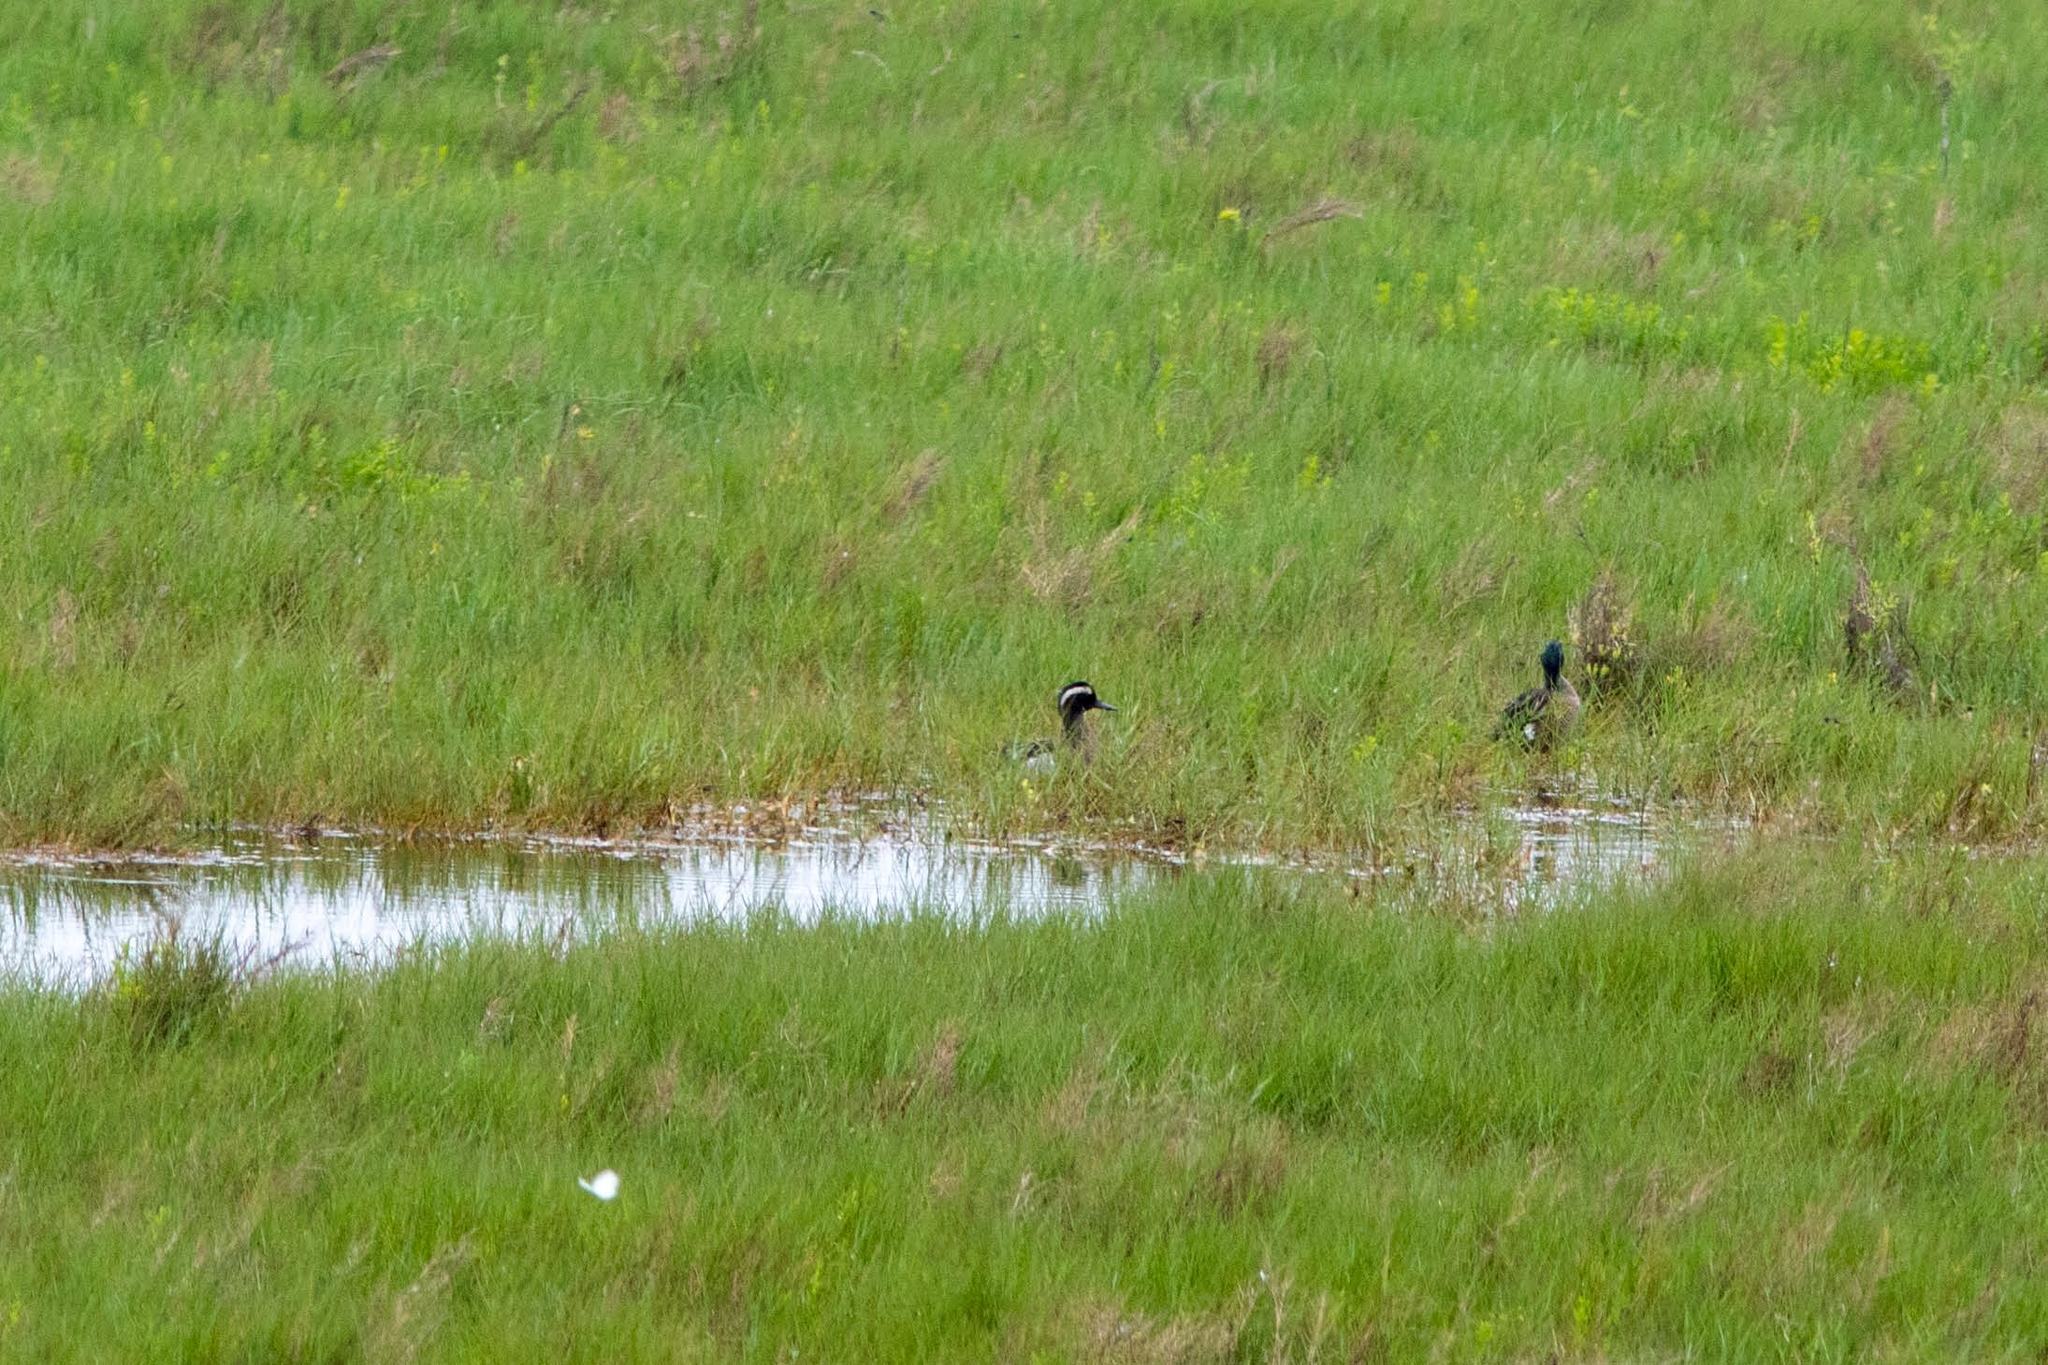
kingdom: Animalia
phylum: Chordata
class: Aves
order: Anseriformes
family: Anatidae
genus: Spatula
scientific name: Spatula querquedula
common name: Garganey
